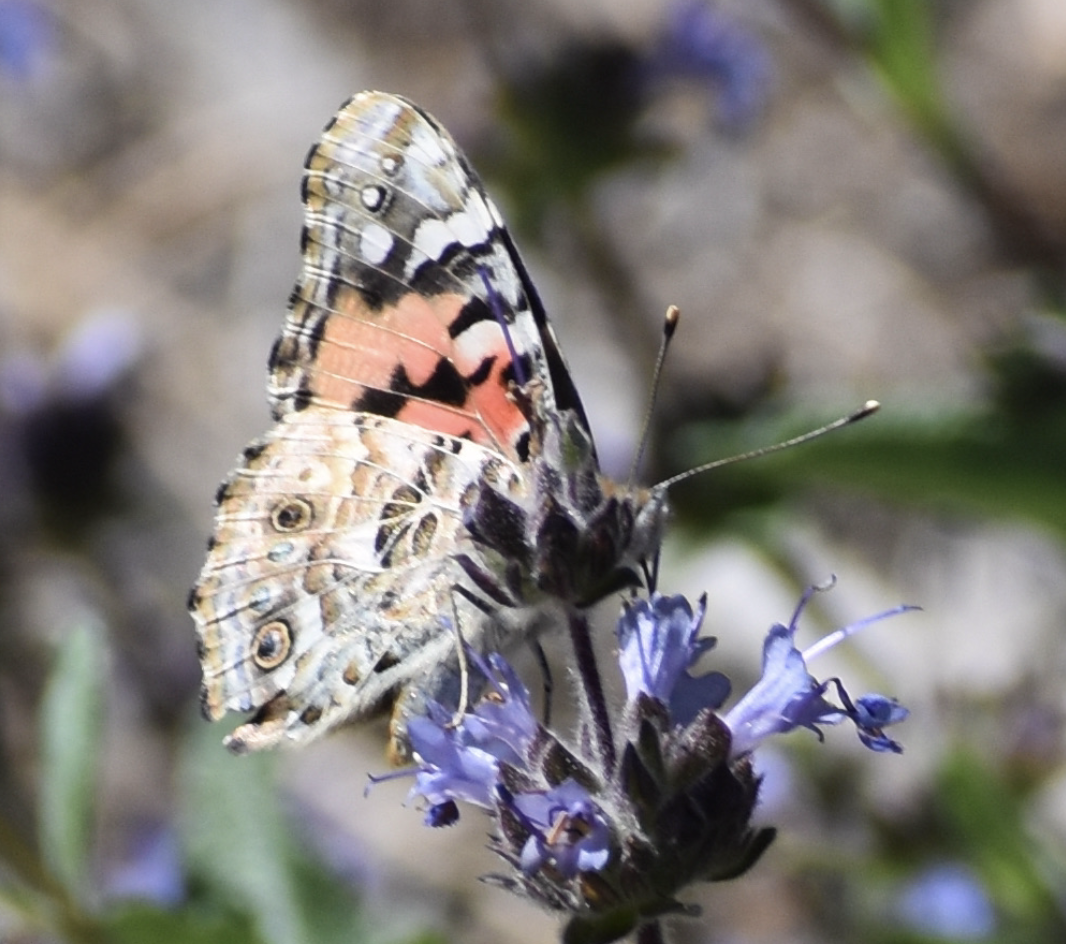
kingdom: Animalia
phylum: Arthropoda
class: Insecta
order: Lepidoptera
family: Nymphalidae
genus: Vanessa
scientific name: Vanessa cardui
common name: Painted lady
